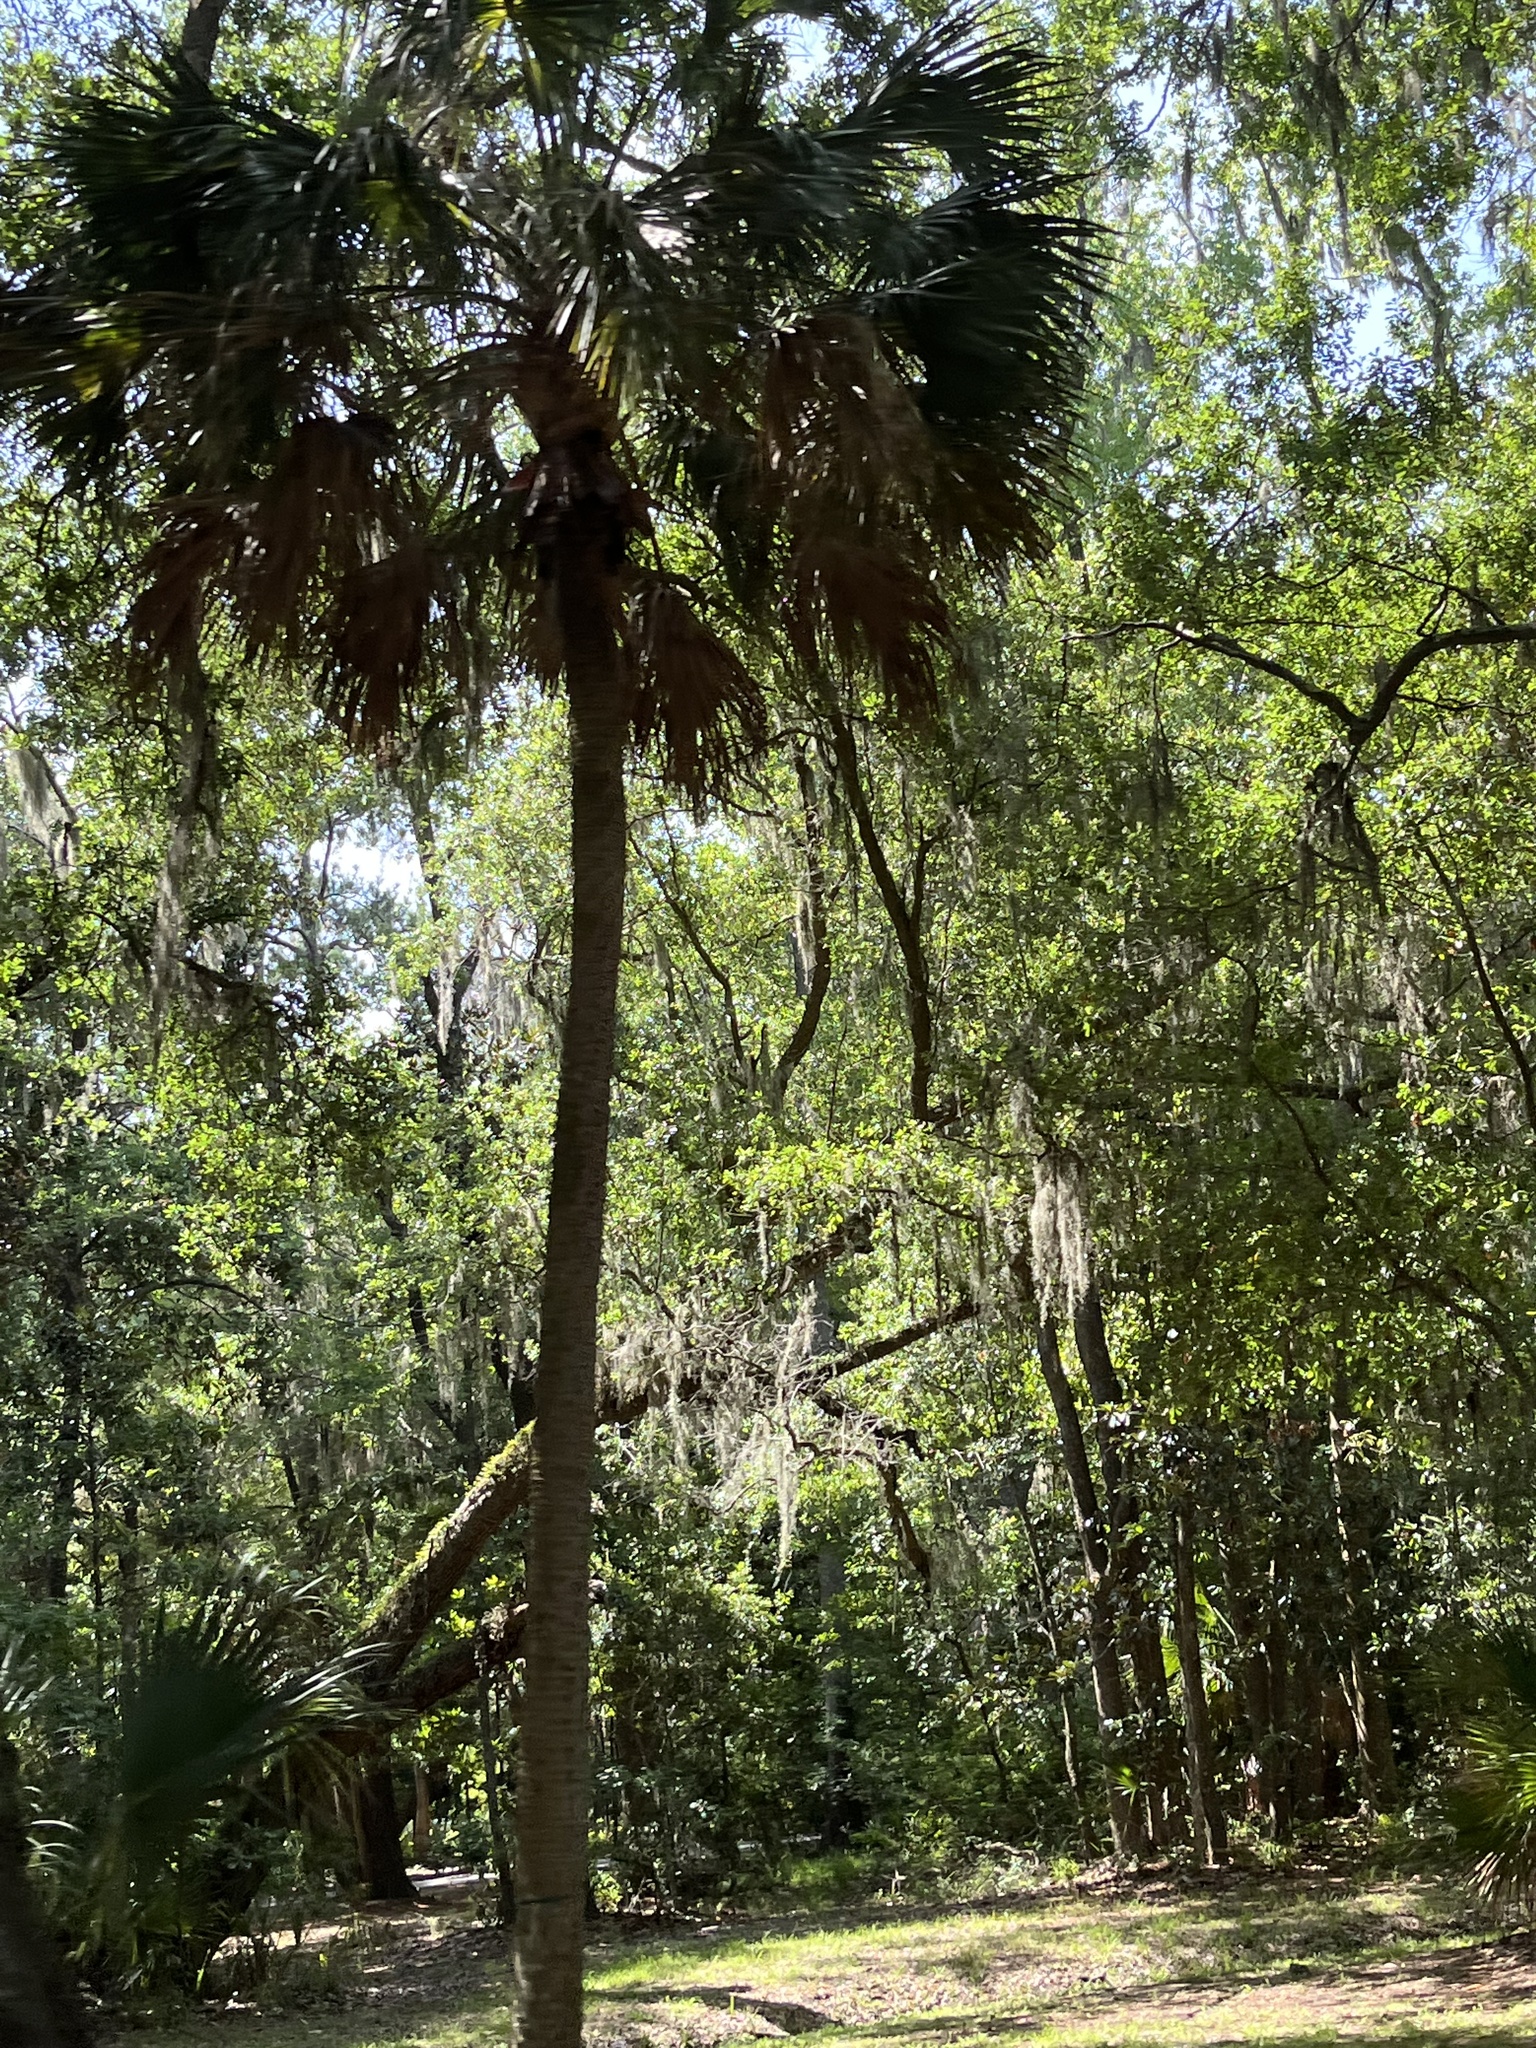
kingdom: Plantae
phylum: Tracheophyta
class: Liliopsida
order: Arecales
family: Arecaceae
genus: Sabal
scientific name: Sabal palmetto
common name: Blue palmetto
